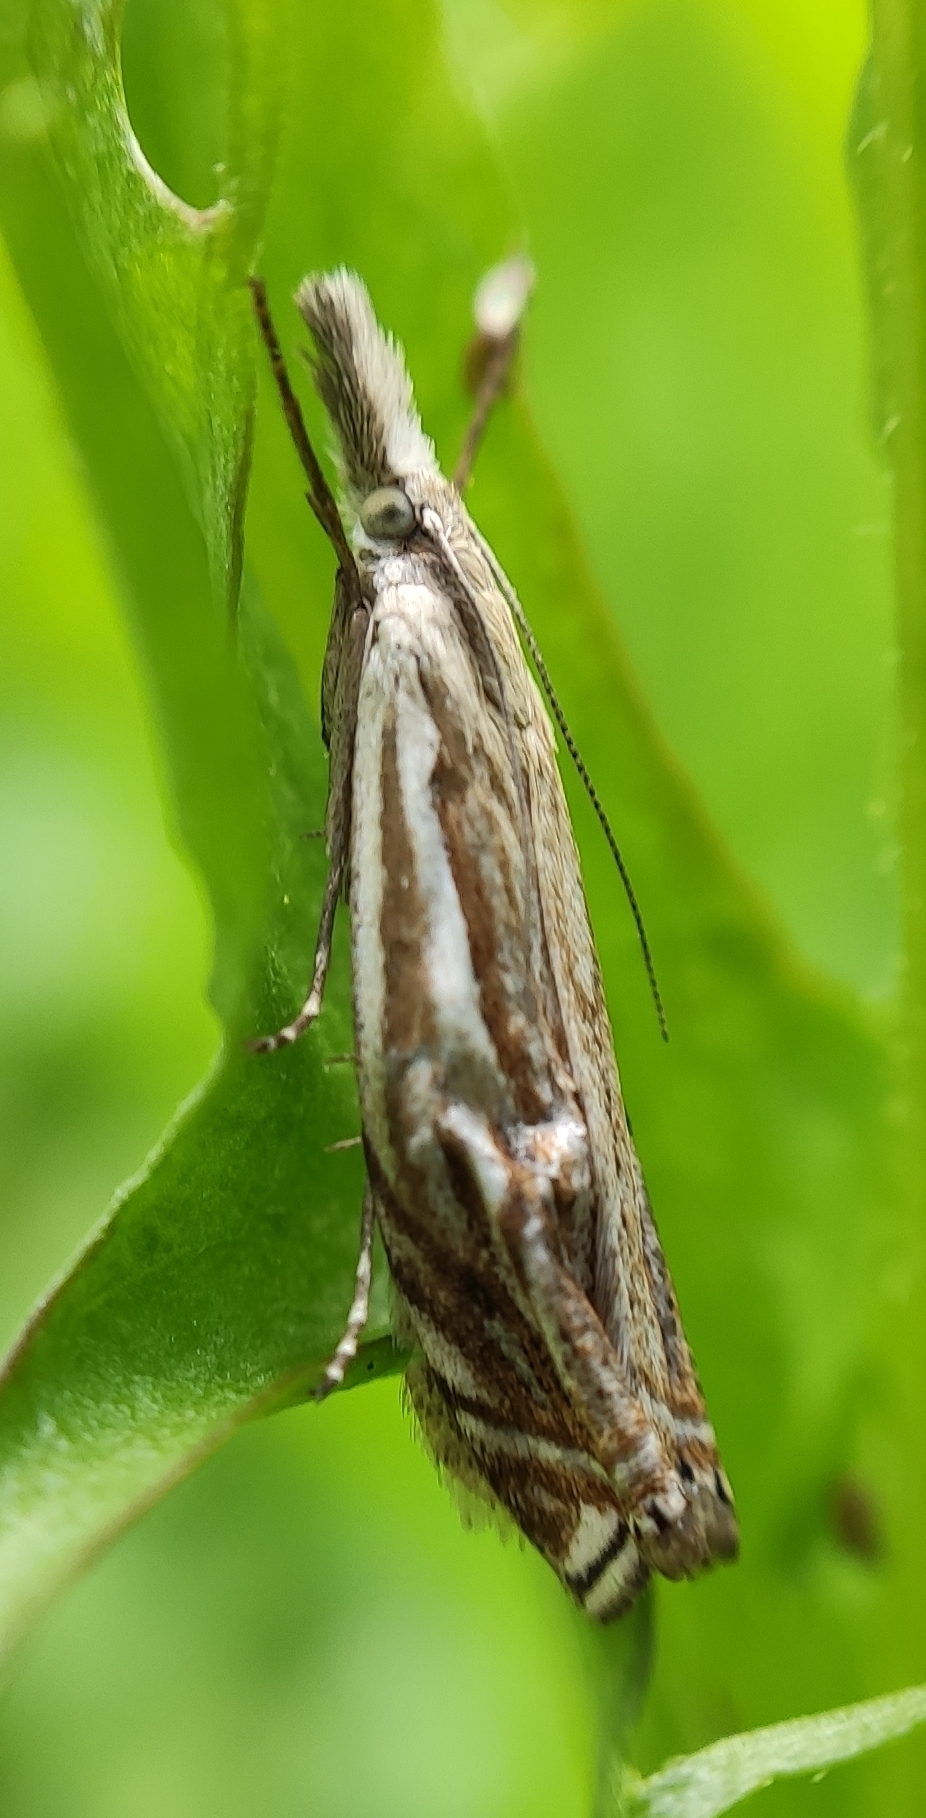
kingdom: Animalia
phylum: Arthropoda
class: Insecta
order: Lepidoptera
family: Crambidae
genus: Crambus
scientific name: Crambus nemorella
